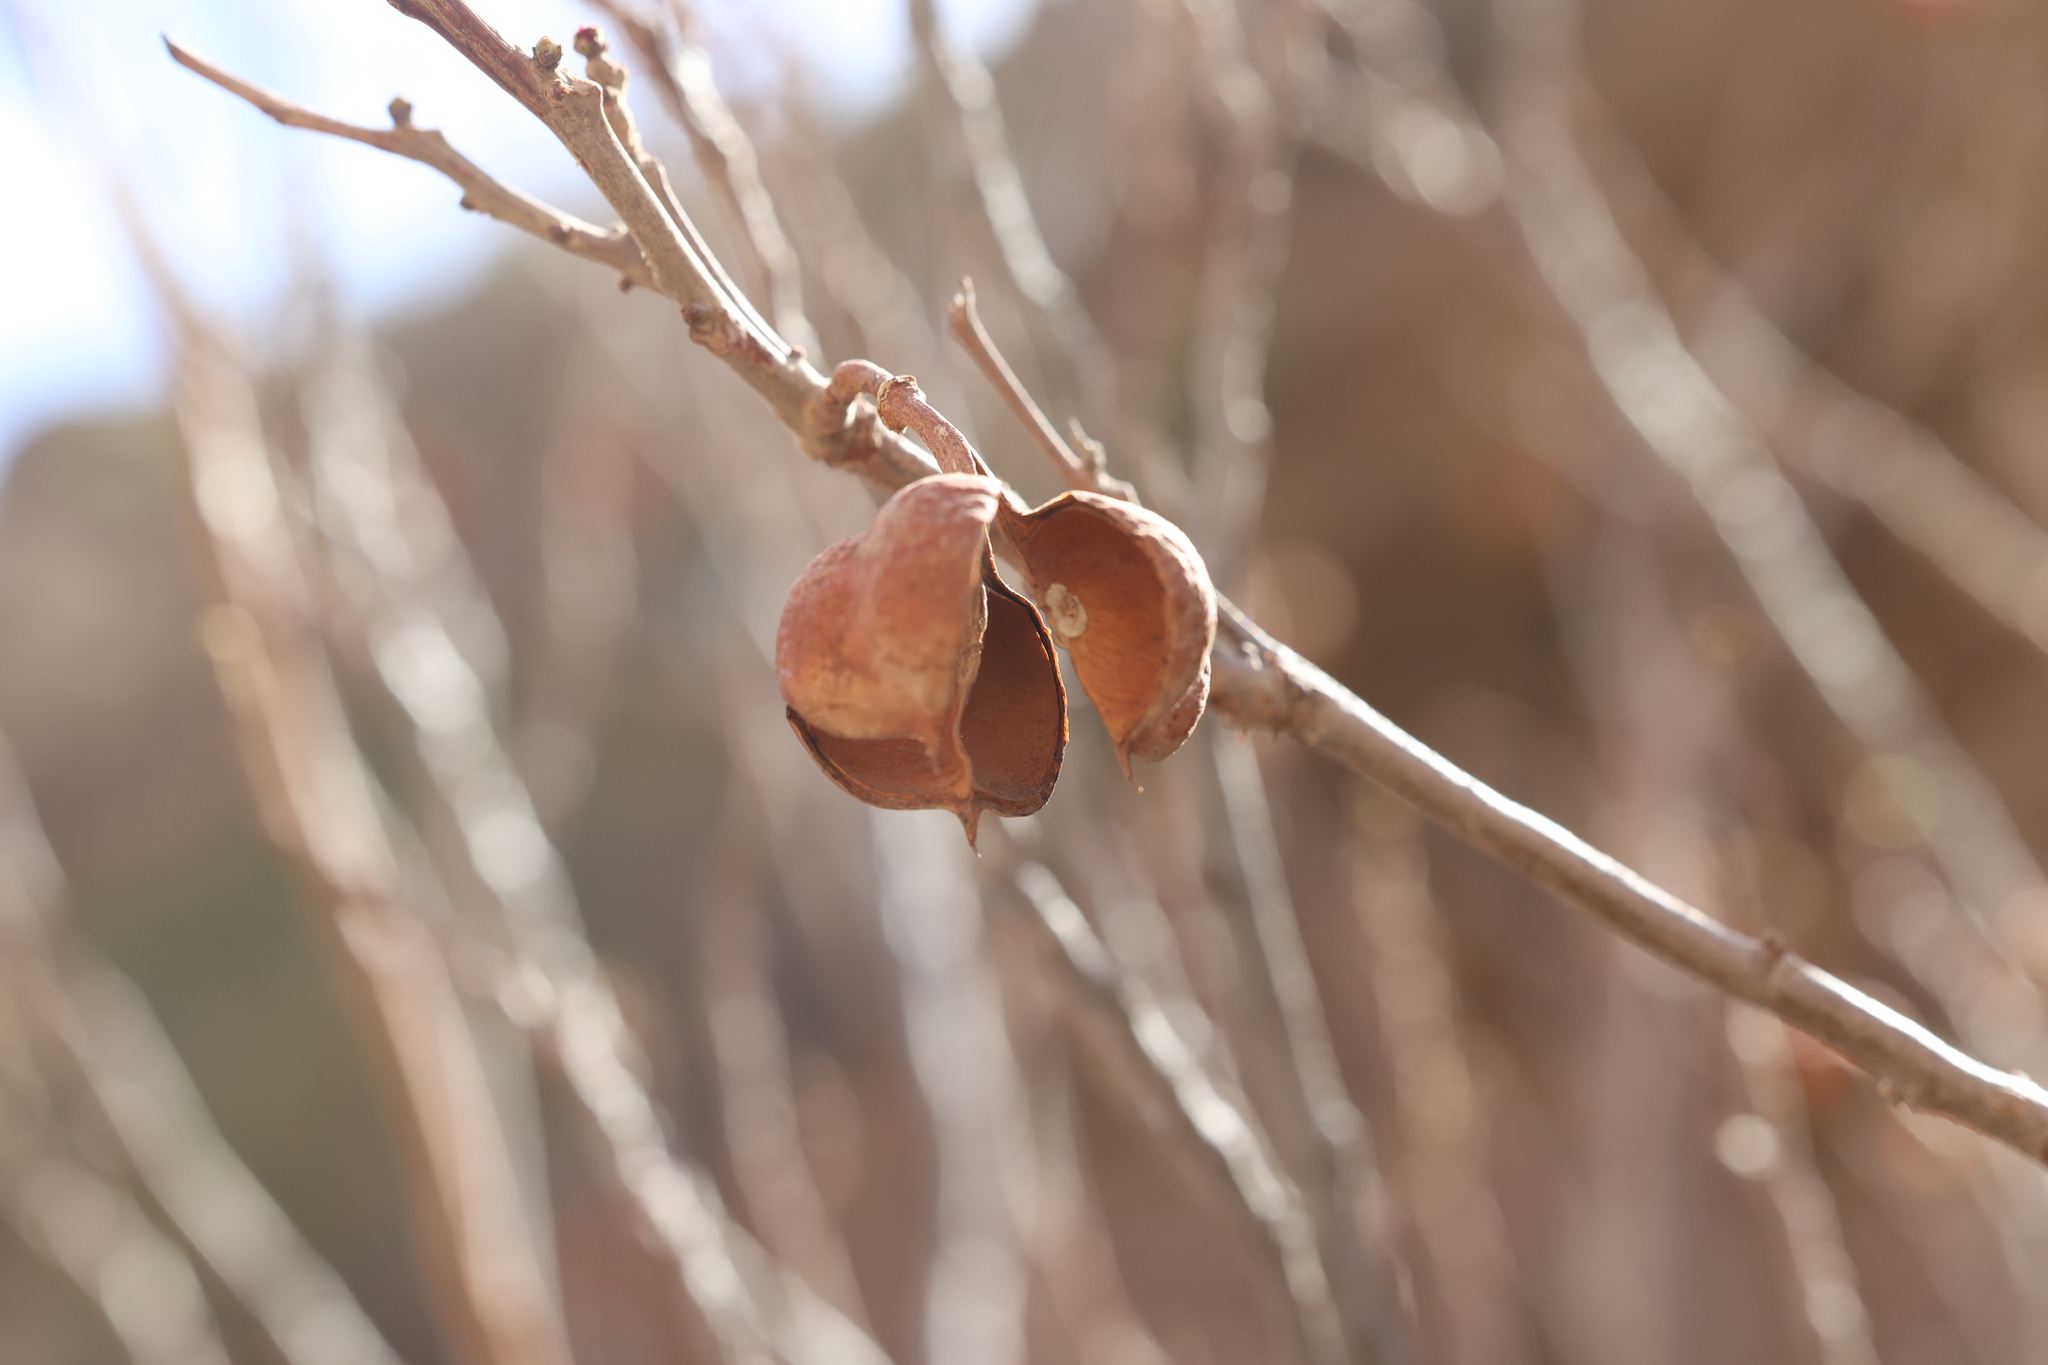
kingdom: Plantae
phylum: Tracheophyta
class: Magnoliopsida
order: Sapindales
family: Sapindaceae
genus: Ungnadia
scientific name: Ungnadia speciosa
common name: Texas-buckeye
